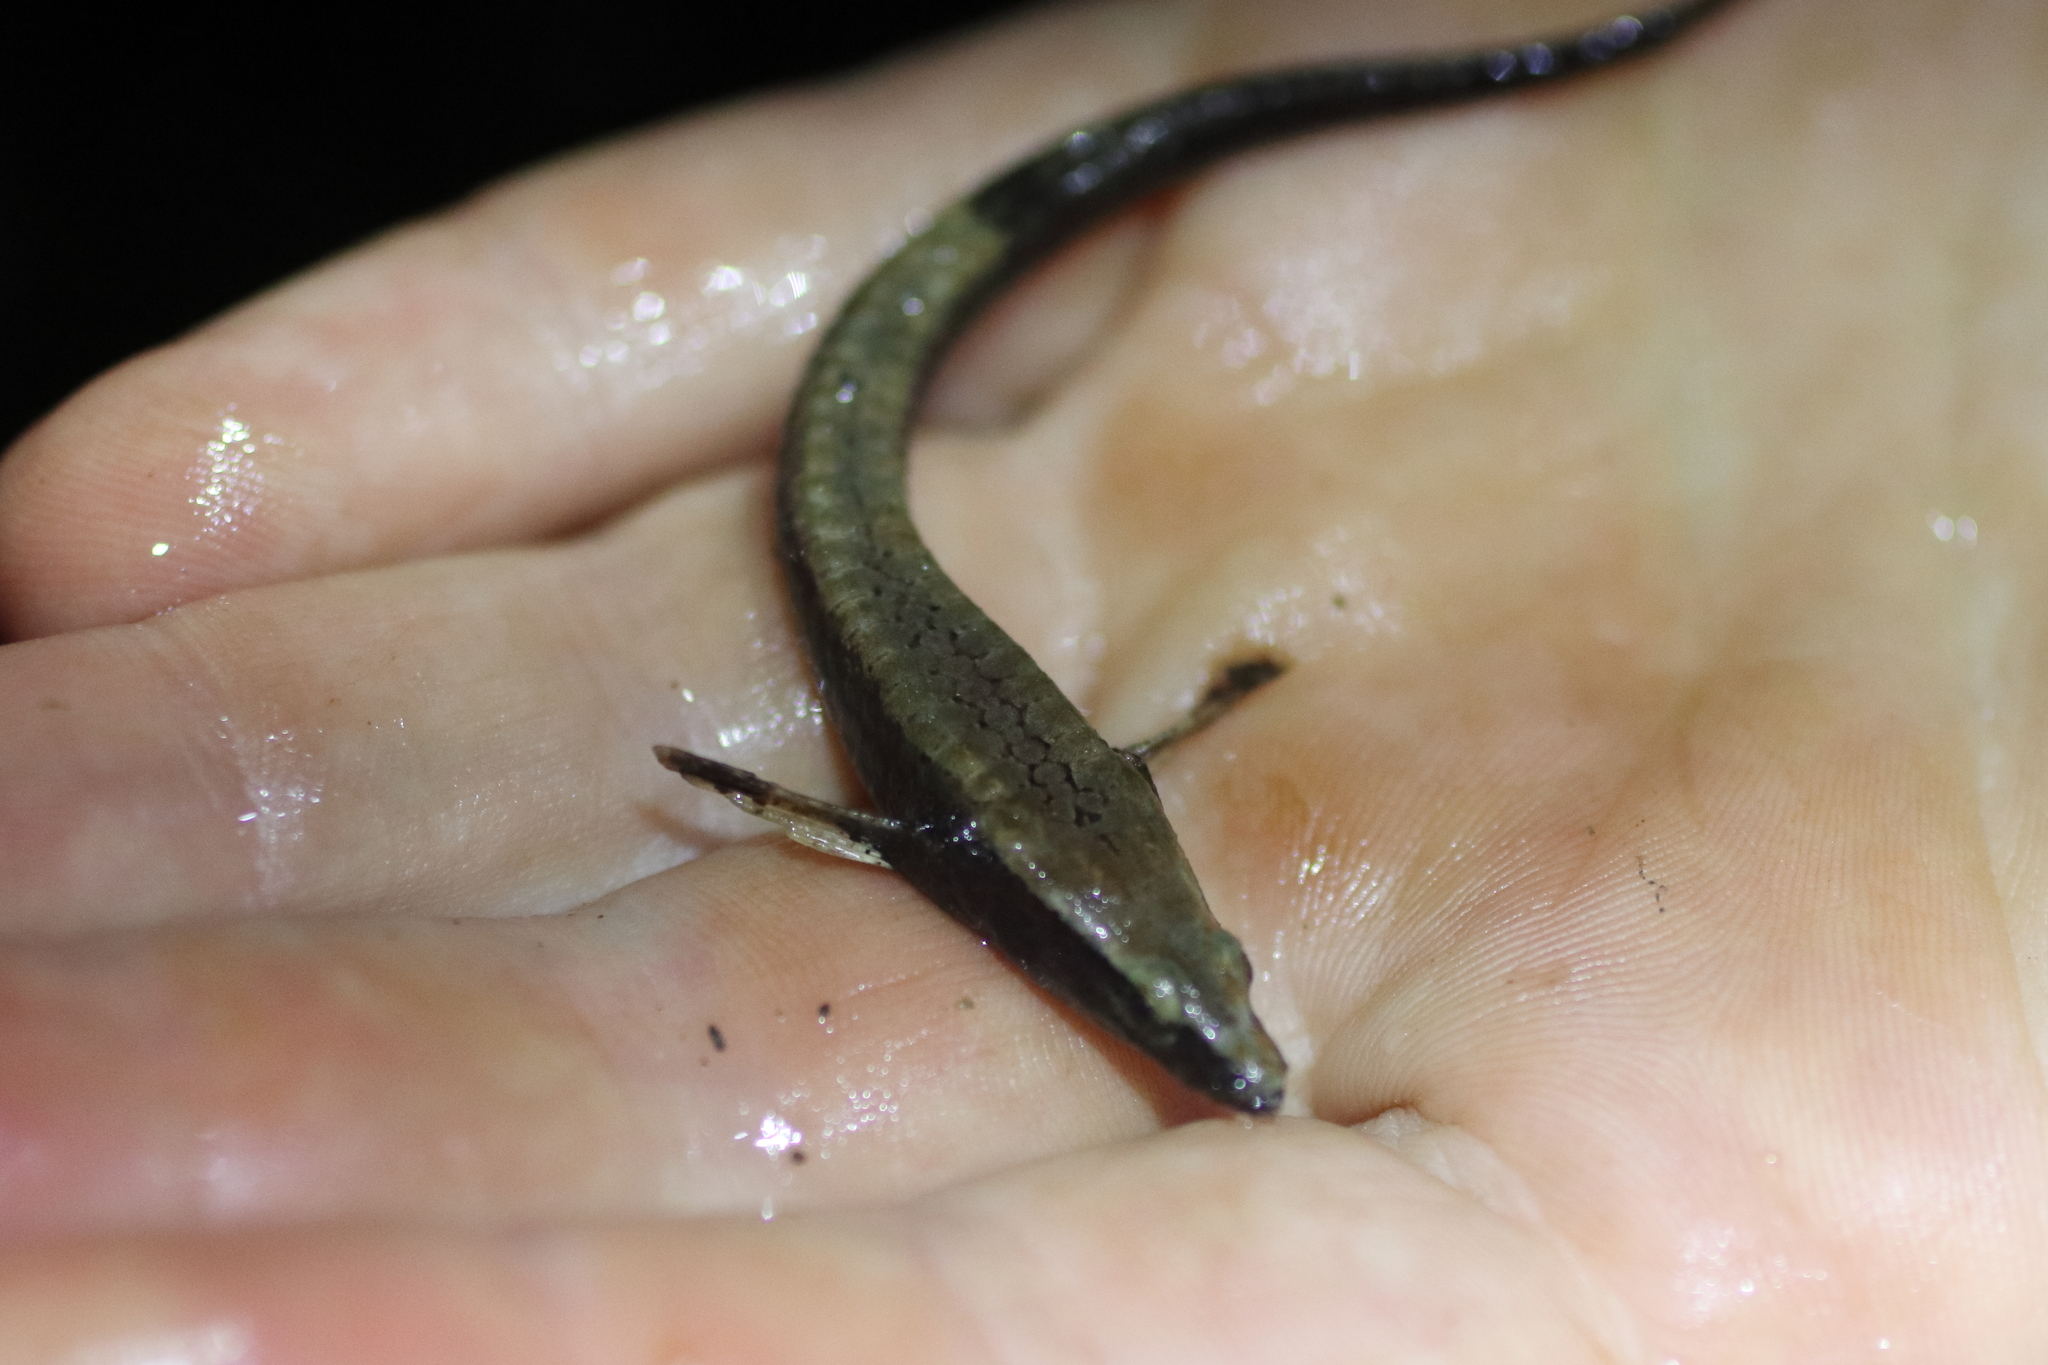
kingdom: Animalia
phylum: Chordata
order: Scorpaeniformes
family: Agonidae
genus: Anoplagonus
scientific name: Anoplagonus inermis
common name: Smooth alligatorfish
